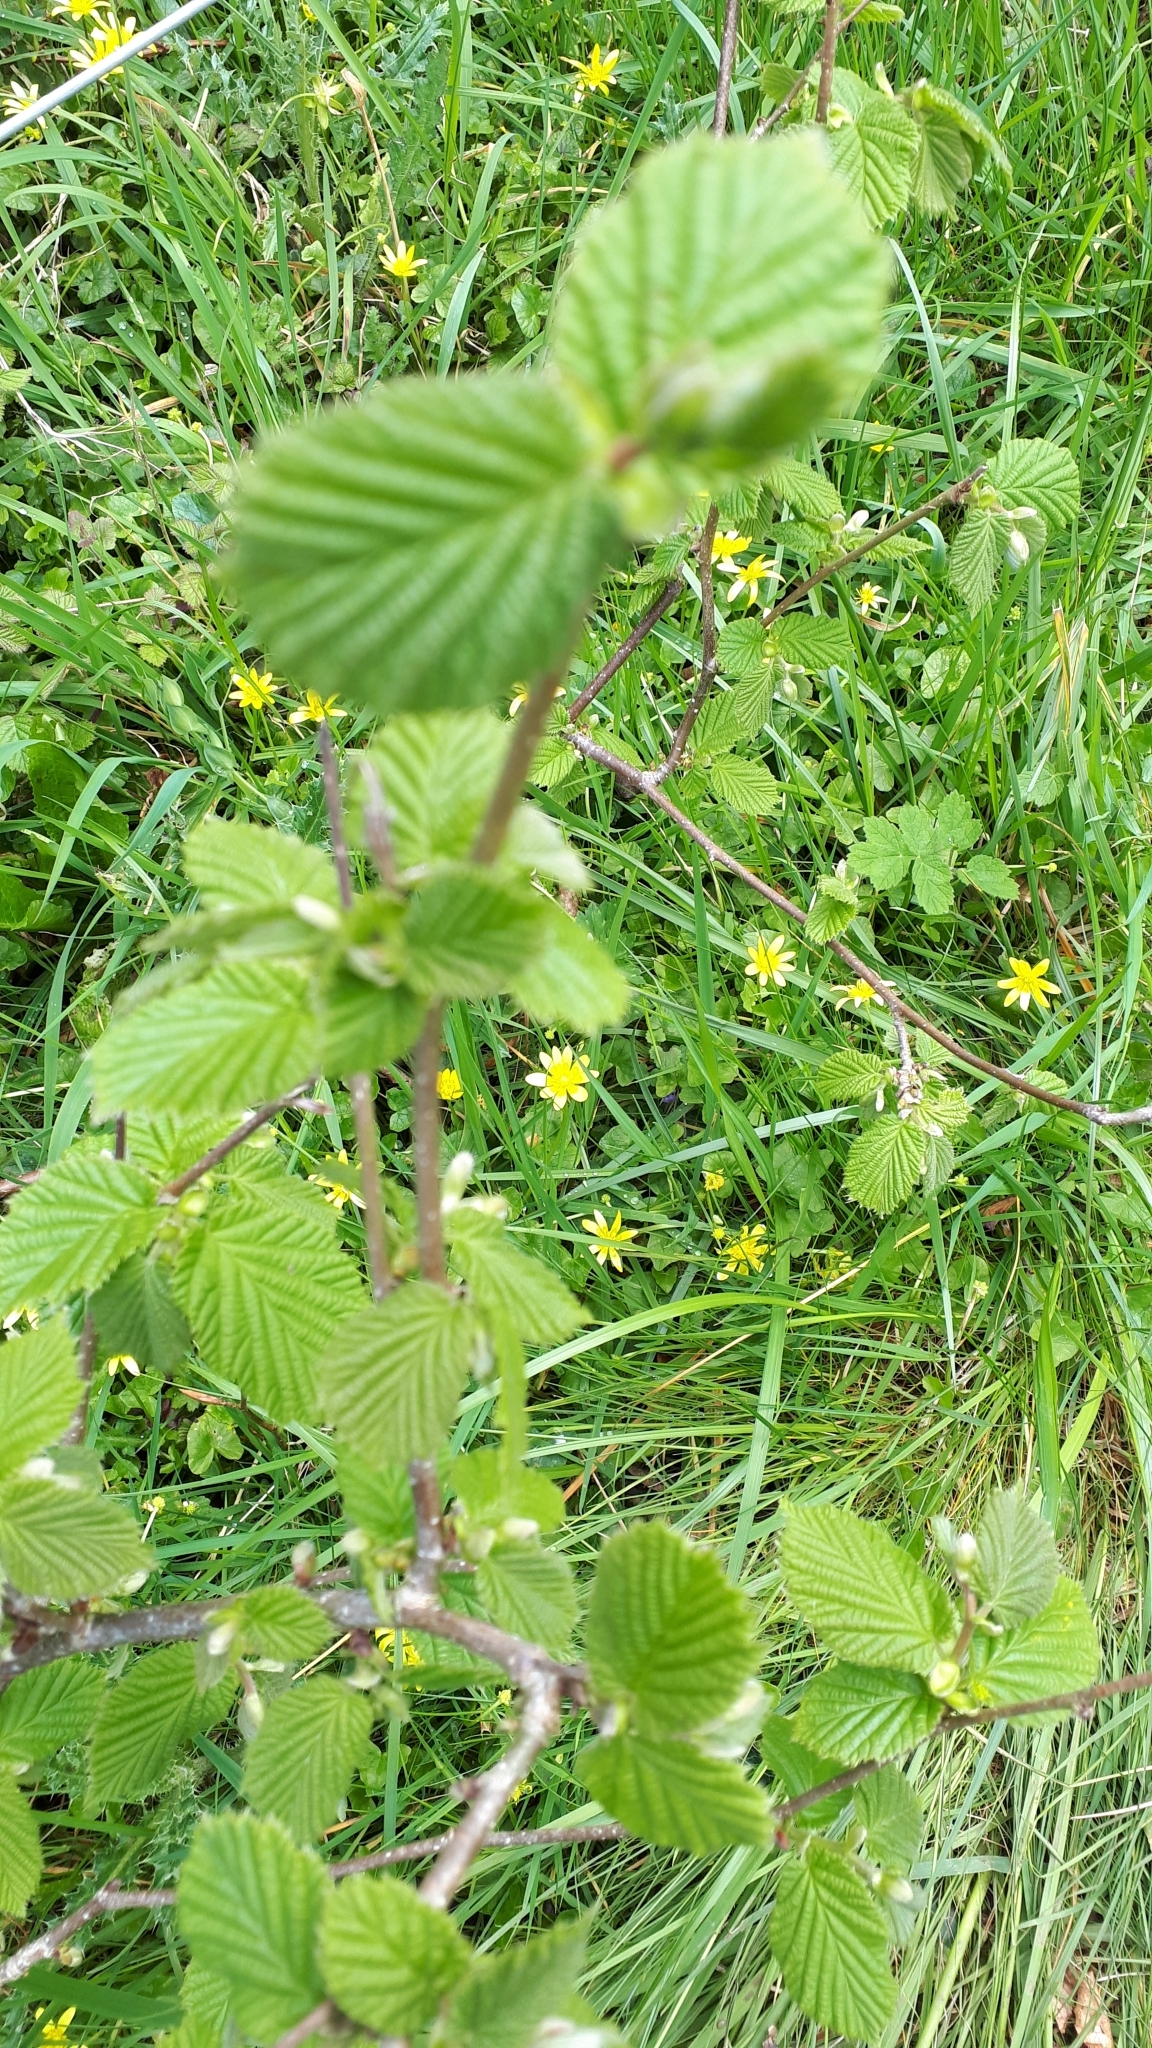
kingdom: Plantae
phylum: Tracheophyta
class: Magnoliopsida
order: Fagales
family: Betulaceae
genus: Corylus
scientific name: Corylus avellana
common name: European hazel
